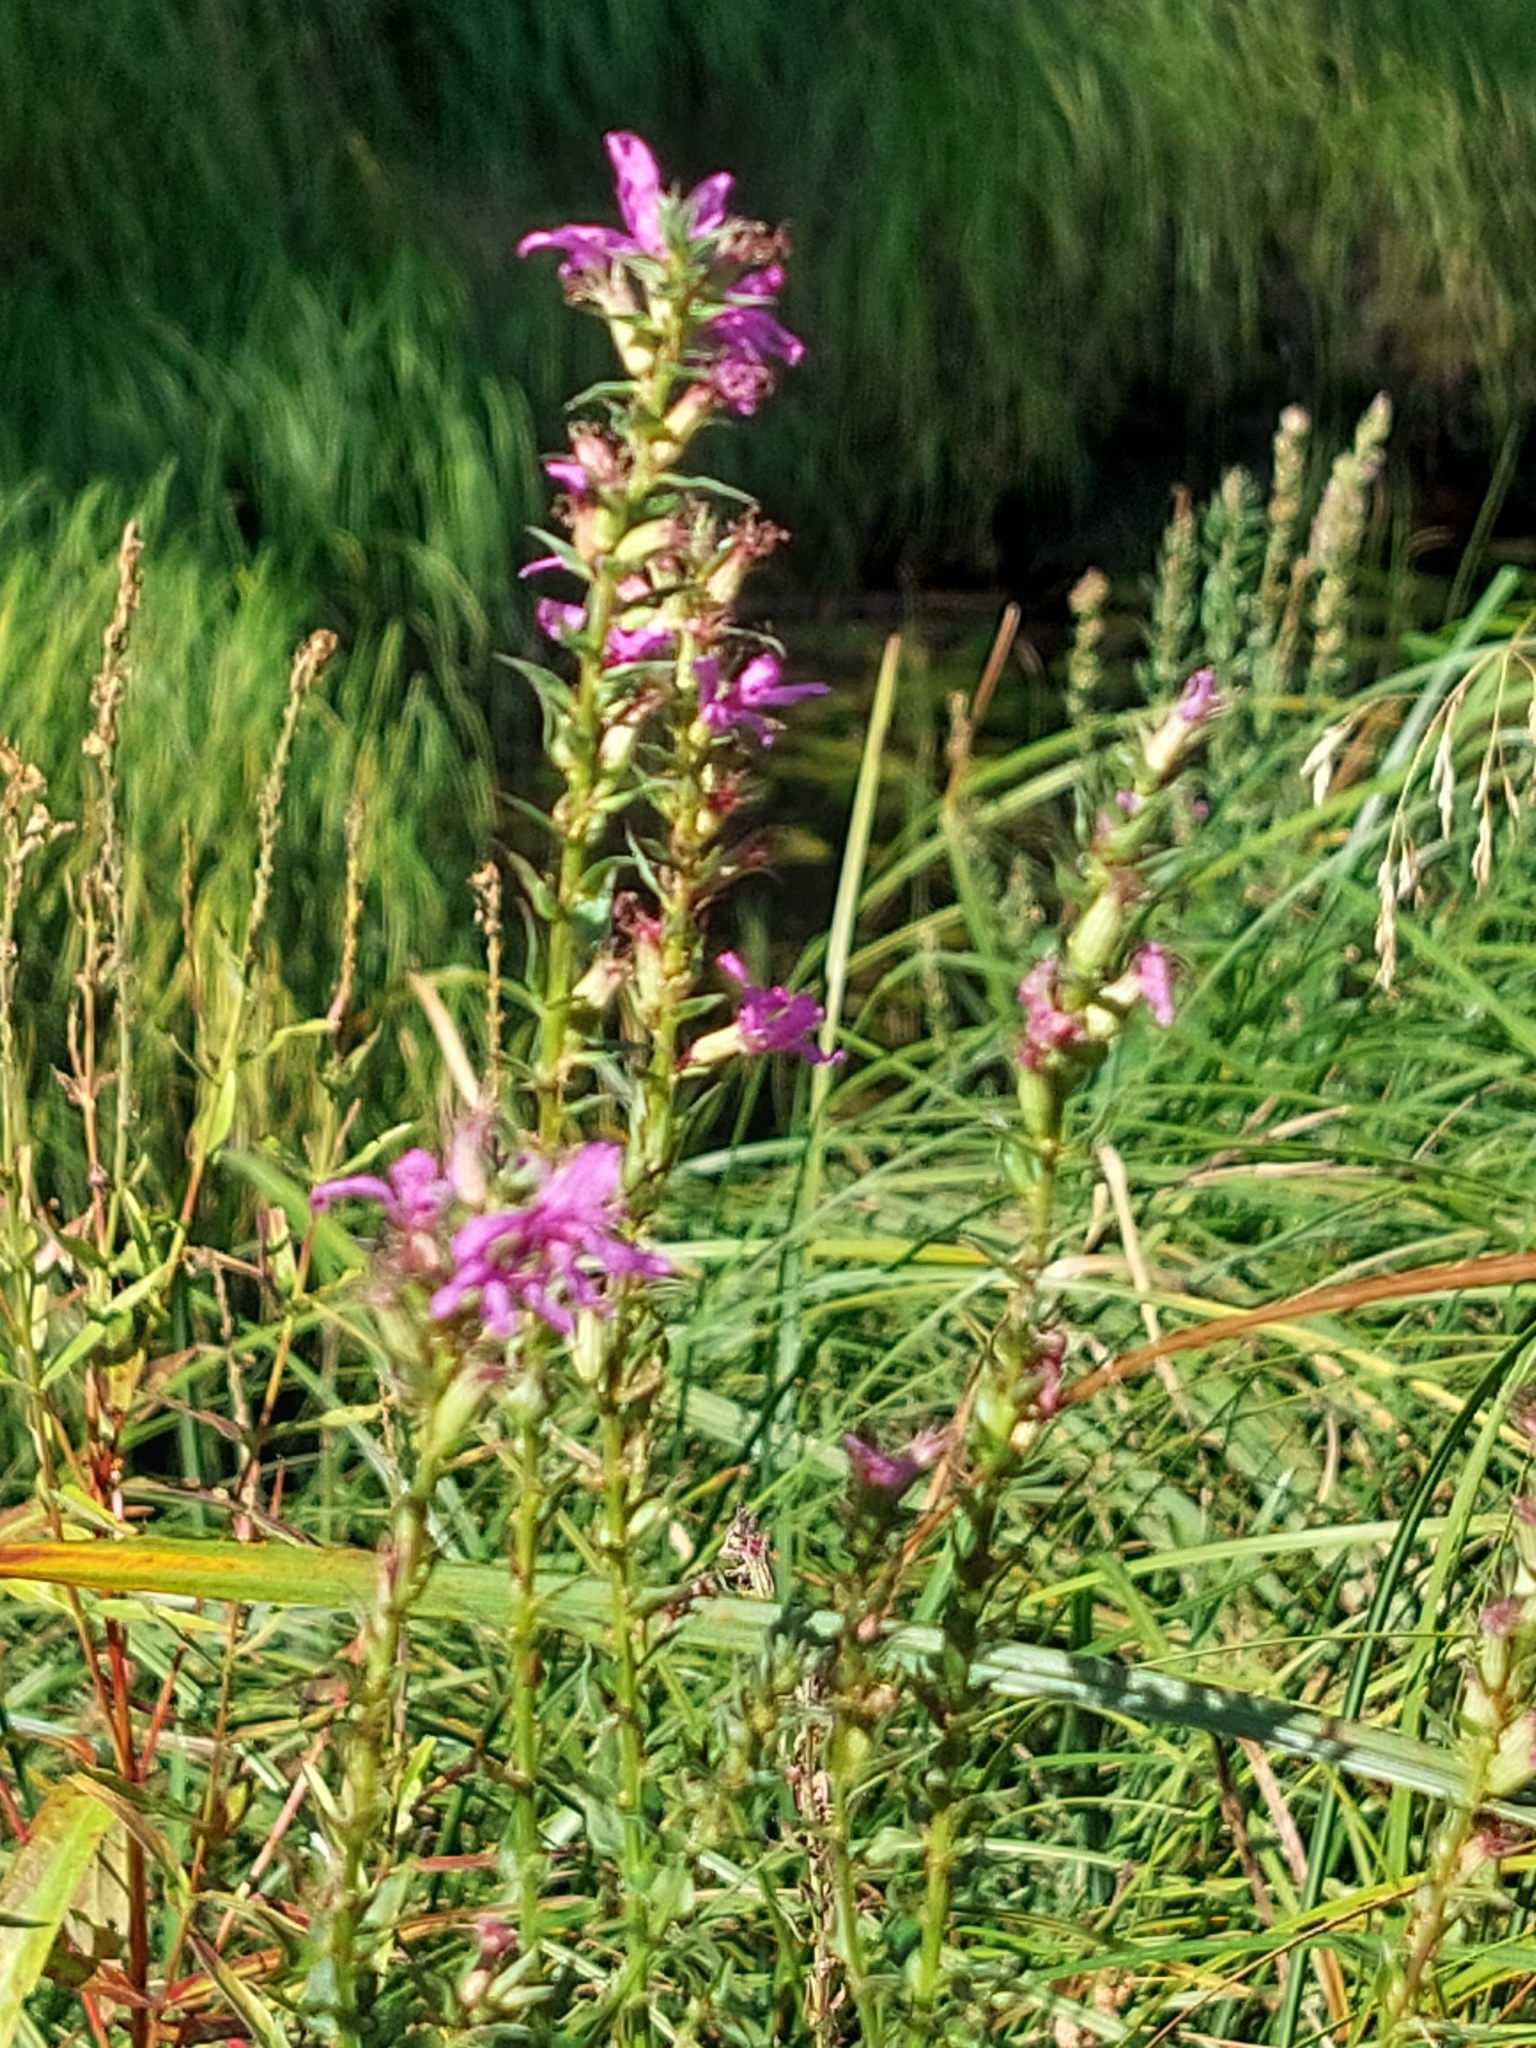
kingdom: Plantae
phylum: Tracheophyta
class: Magnoliopsida
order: Myrtales
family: Lythraceae
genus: Lythrum
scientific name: Lythrum salicaria
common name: Purple loosestrife
